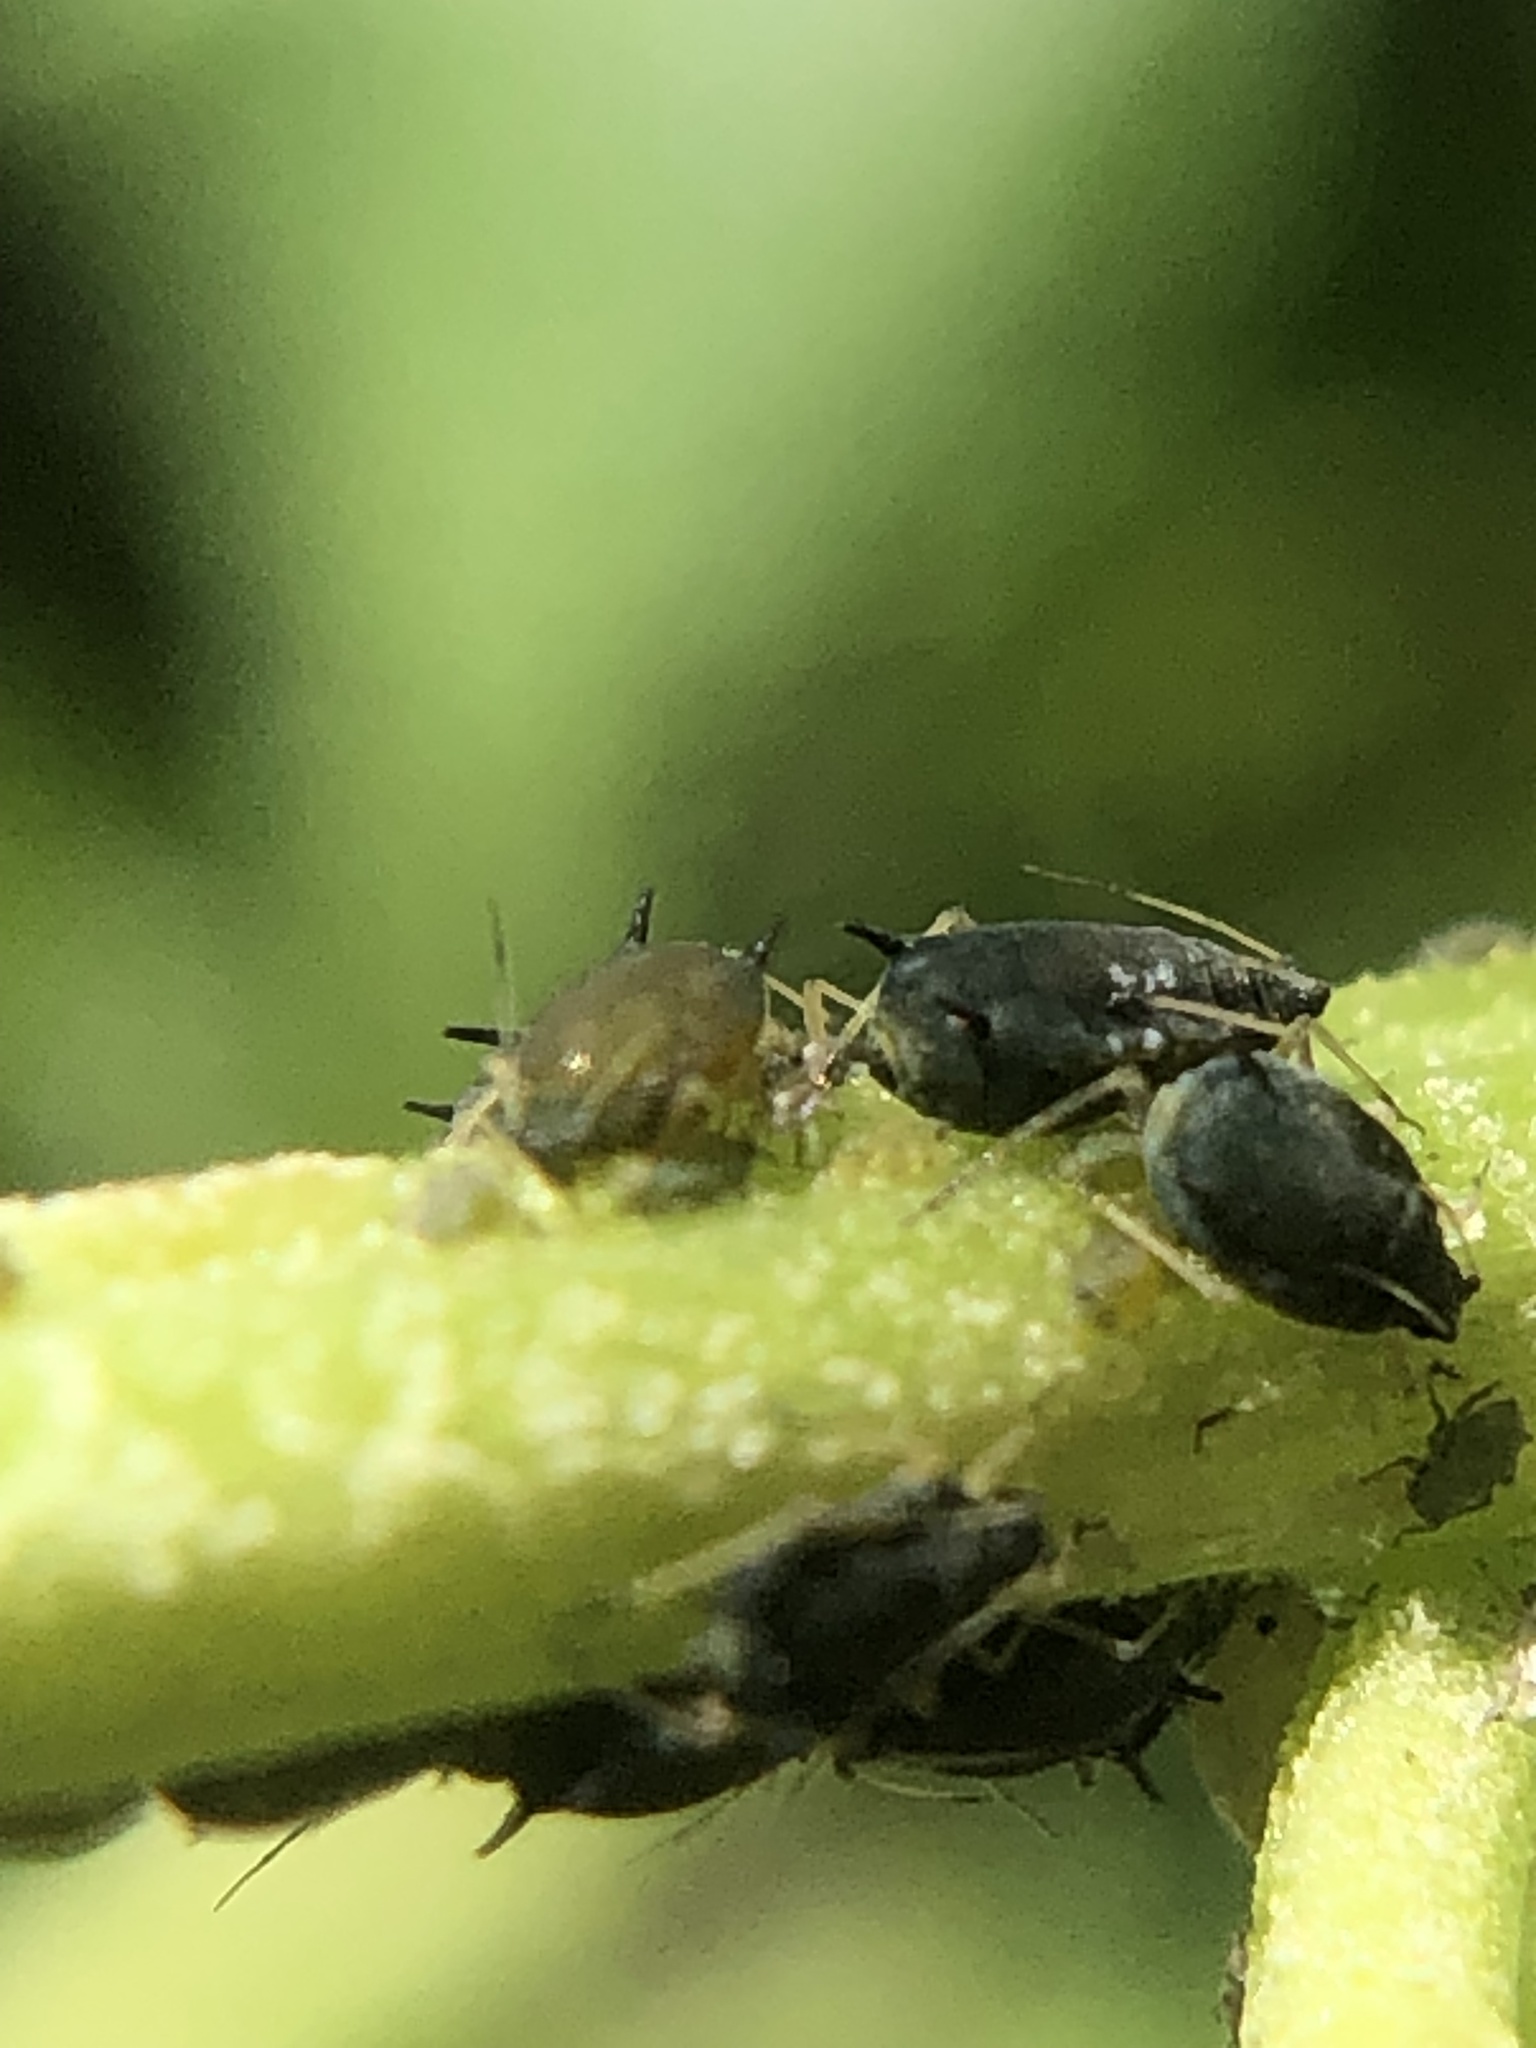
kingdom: Animalia
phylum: Arthropoda
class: Insecta
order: Hemiptera
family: Aphididae
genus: Aphis
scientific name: Aphis gossypii
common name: Melon aphid
